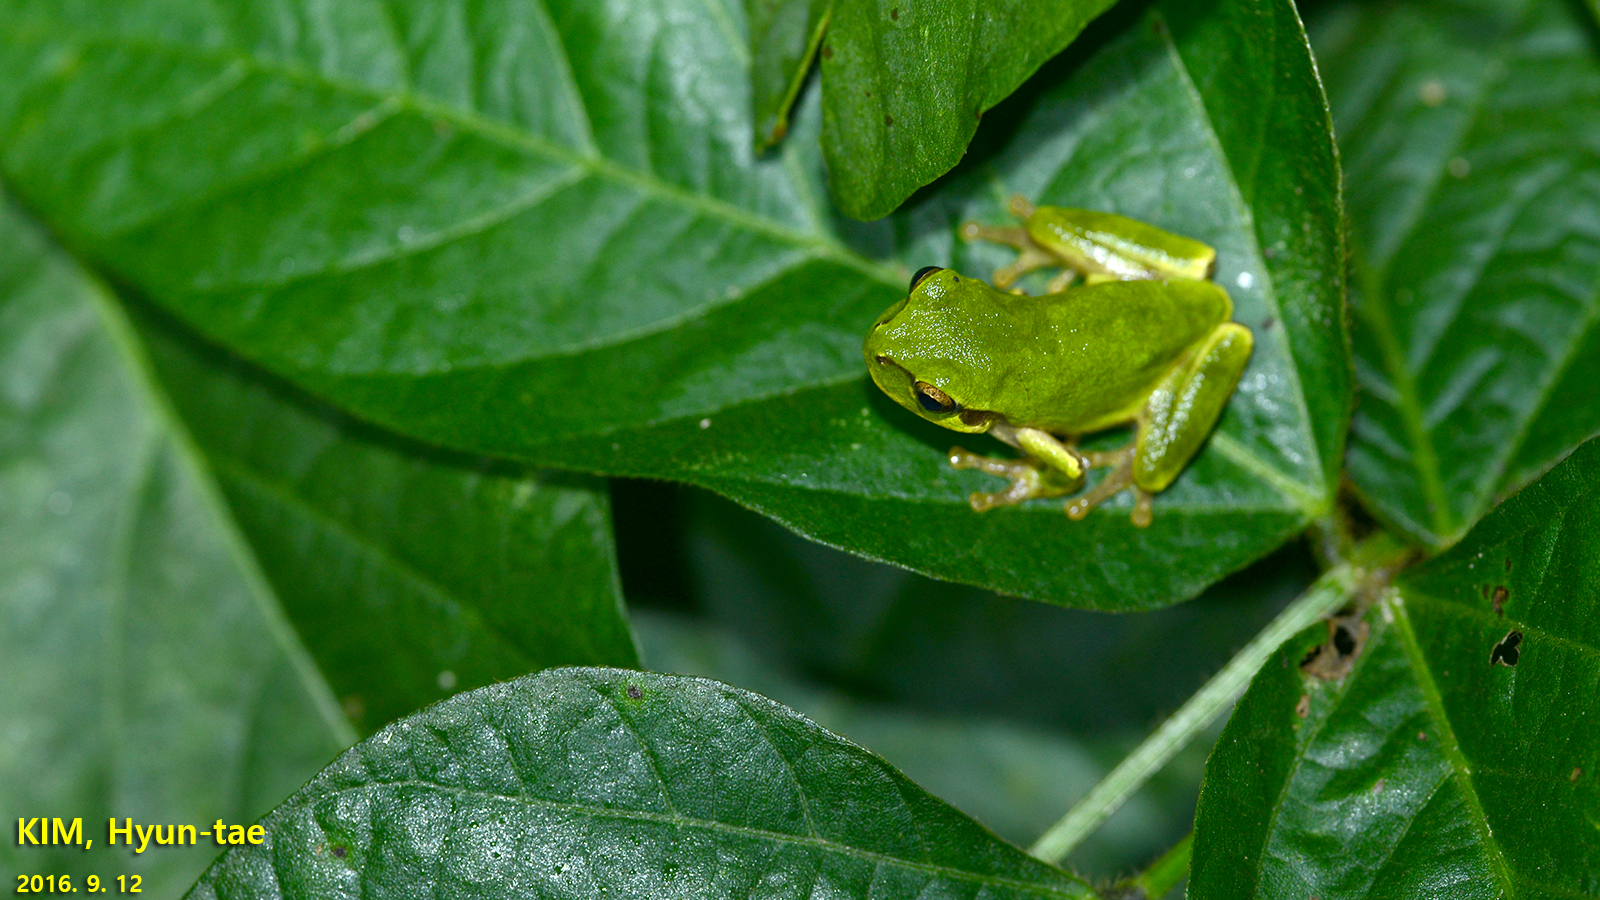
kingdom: Animalia
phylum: Chordata
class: Amphibia
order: Anura
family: Hylidae
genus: Dryophytes
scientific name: Dryophytes japonicus
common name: Japanese treefrog
